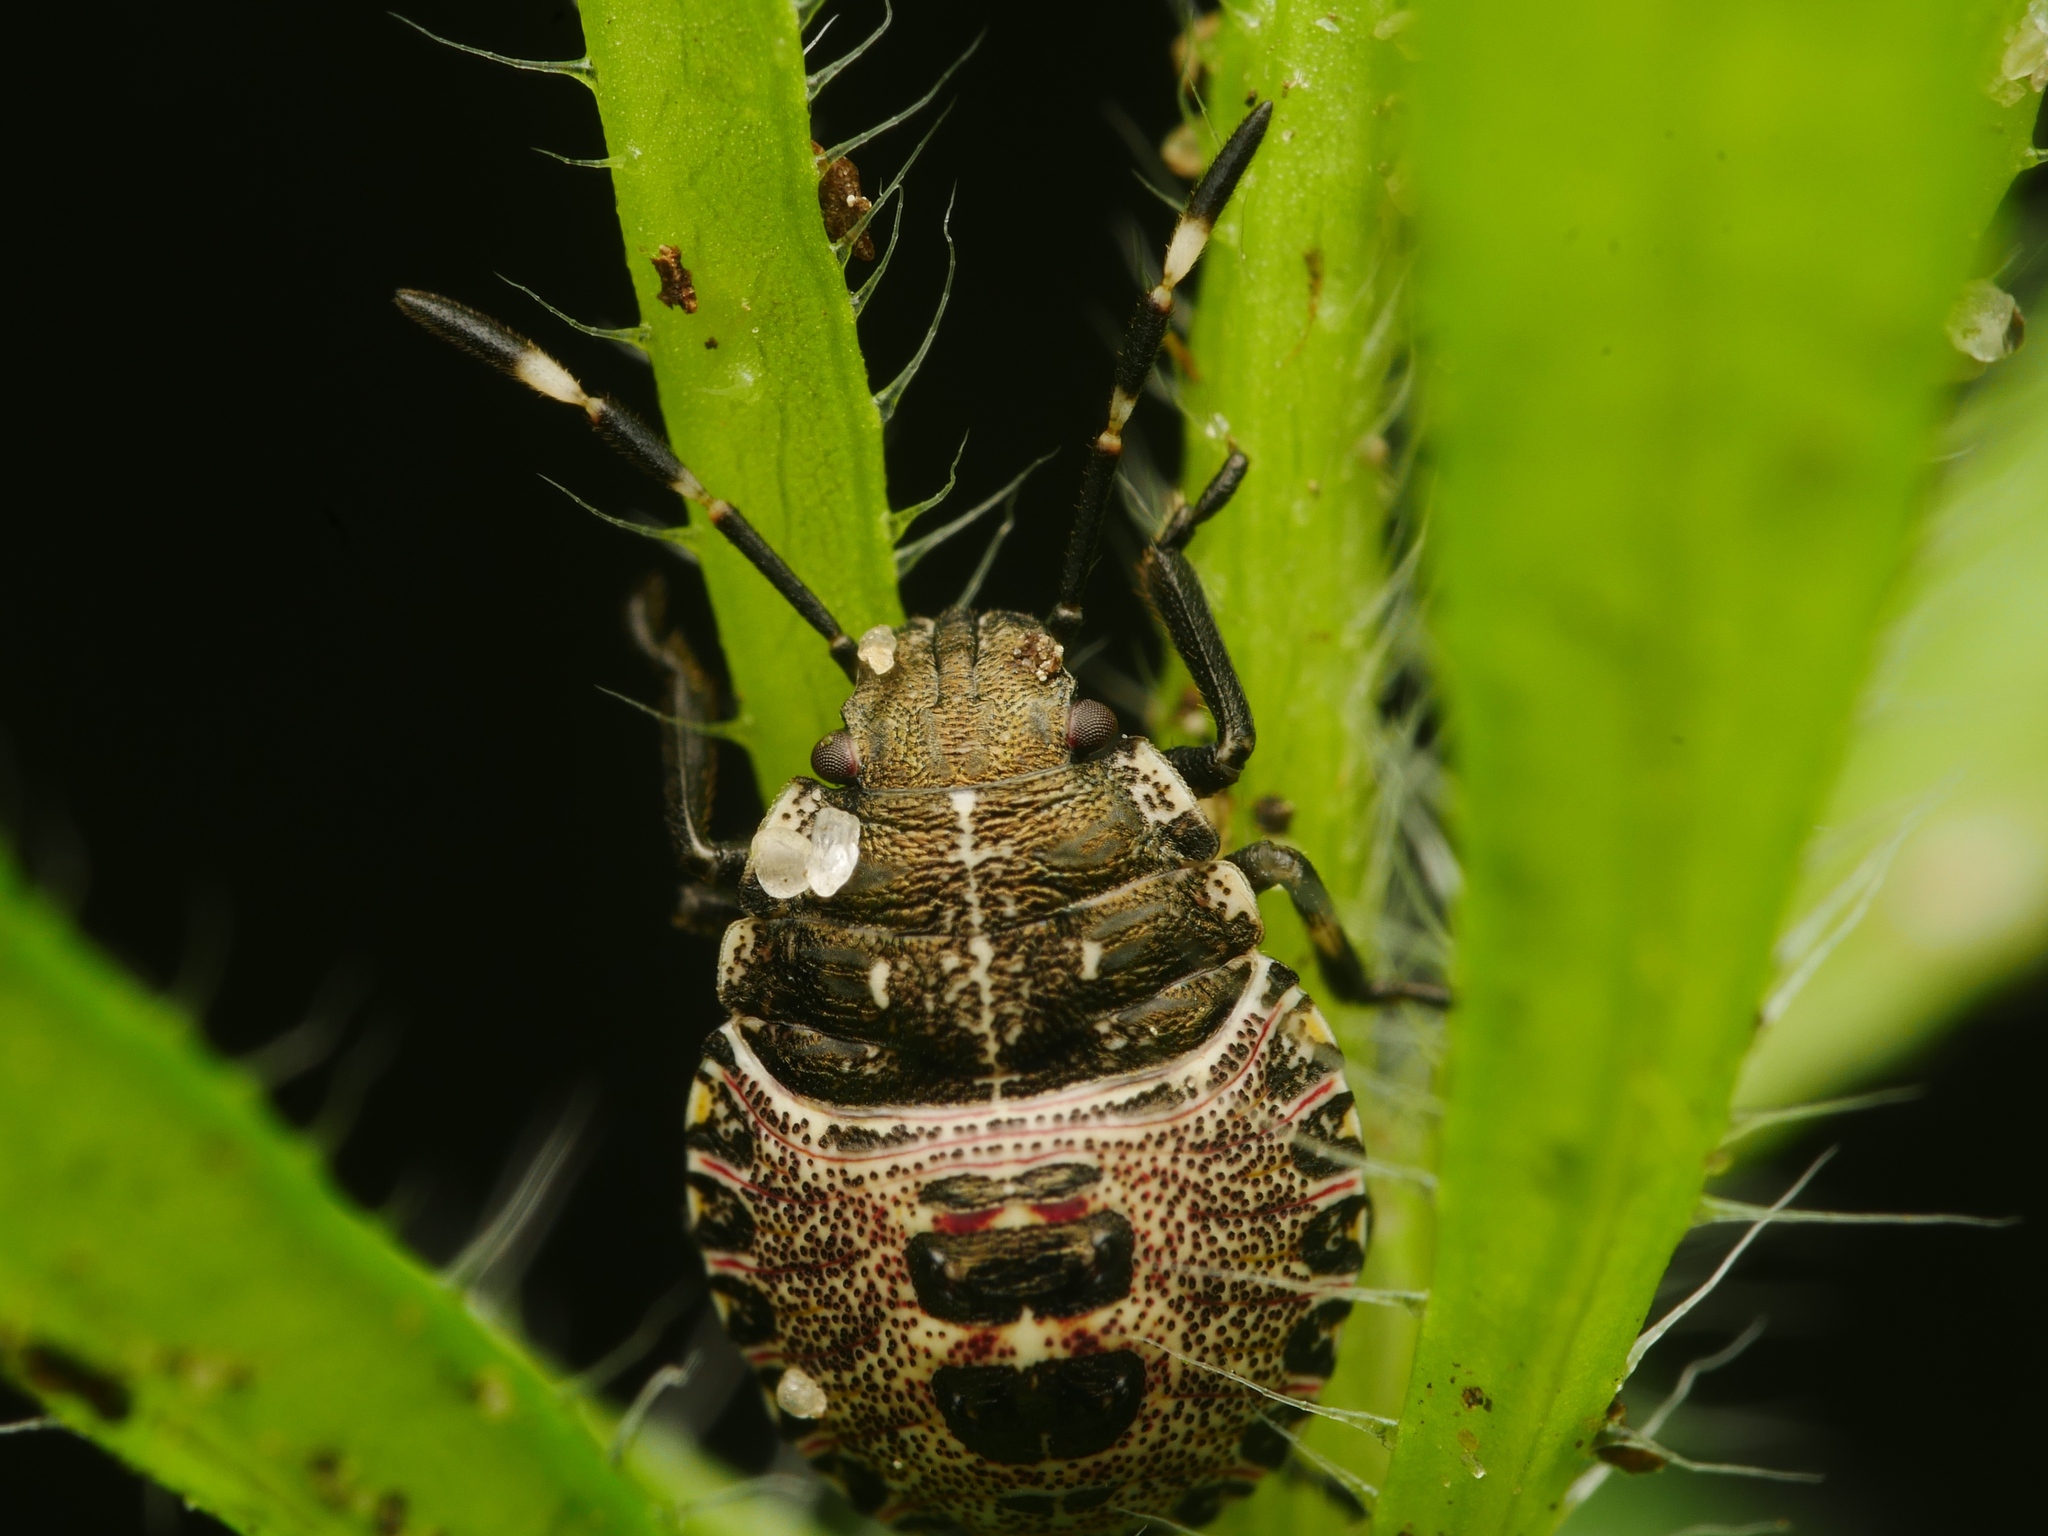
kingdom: Animalia
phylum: Arthropoda
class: Insecta
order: Hemiptera
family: Pentatomidae
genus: Rhaphigaster
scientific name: Rhaphigaster nebulosa
